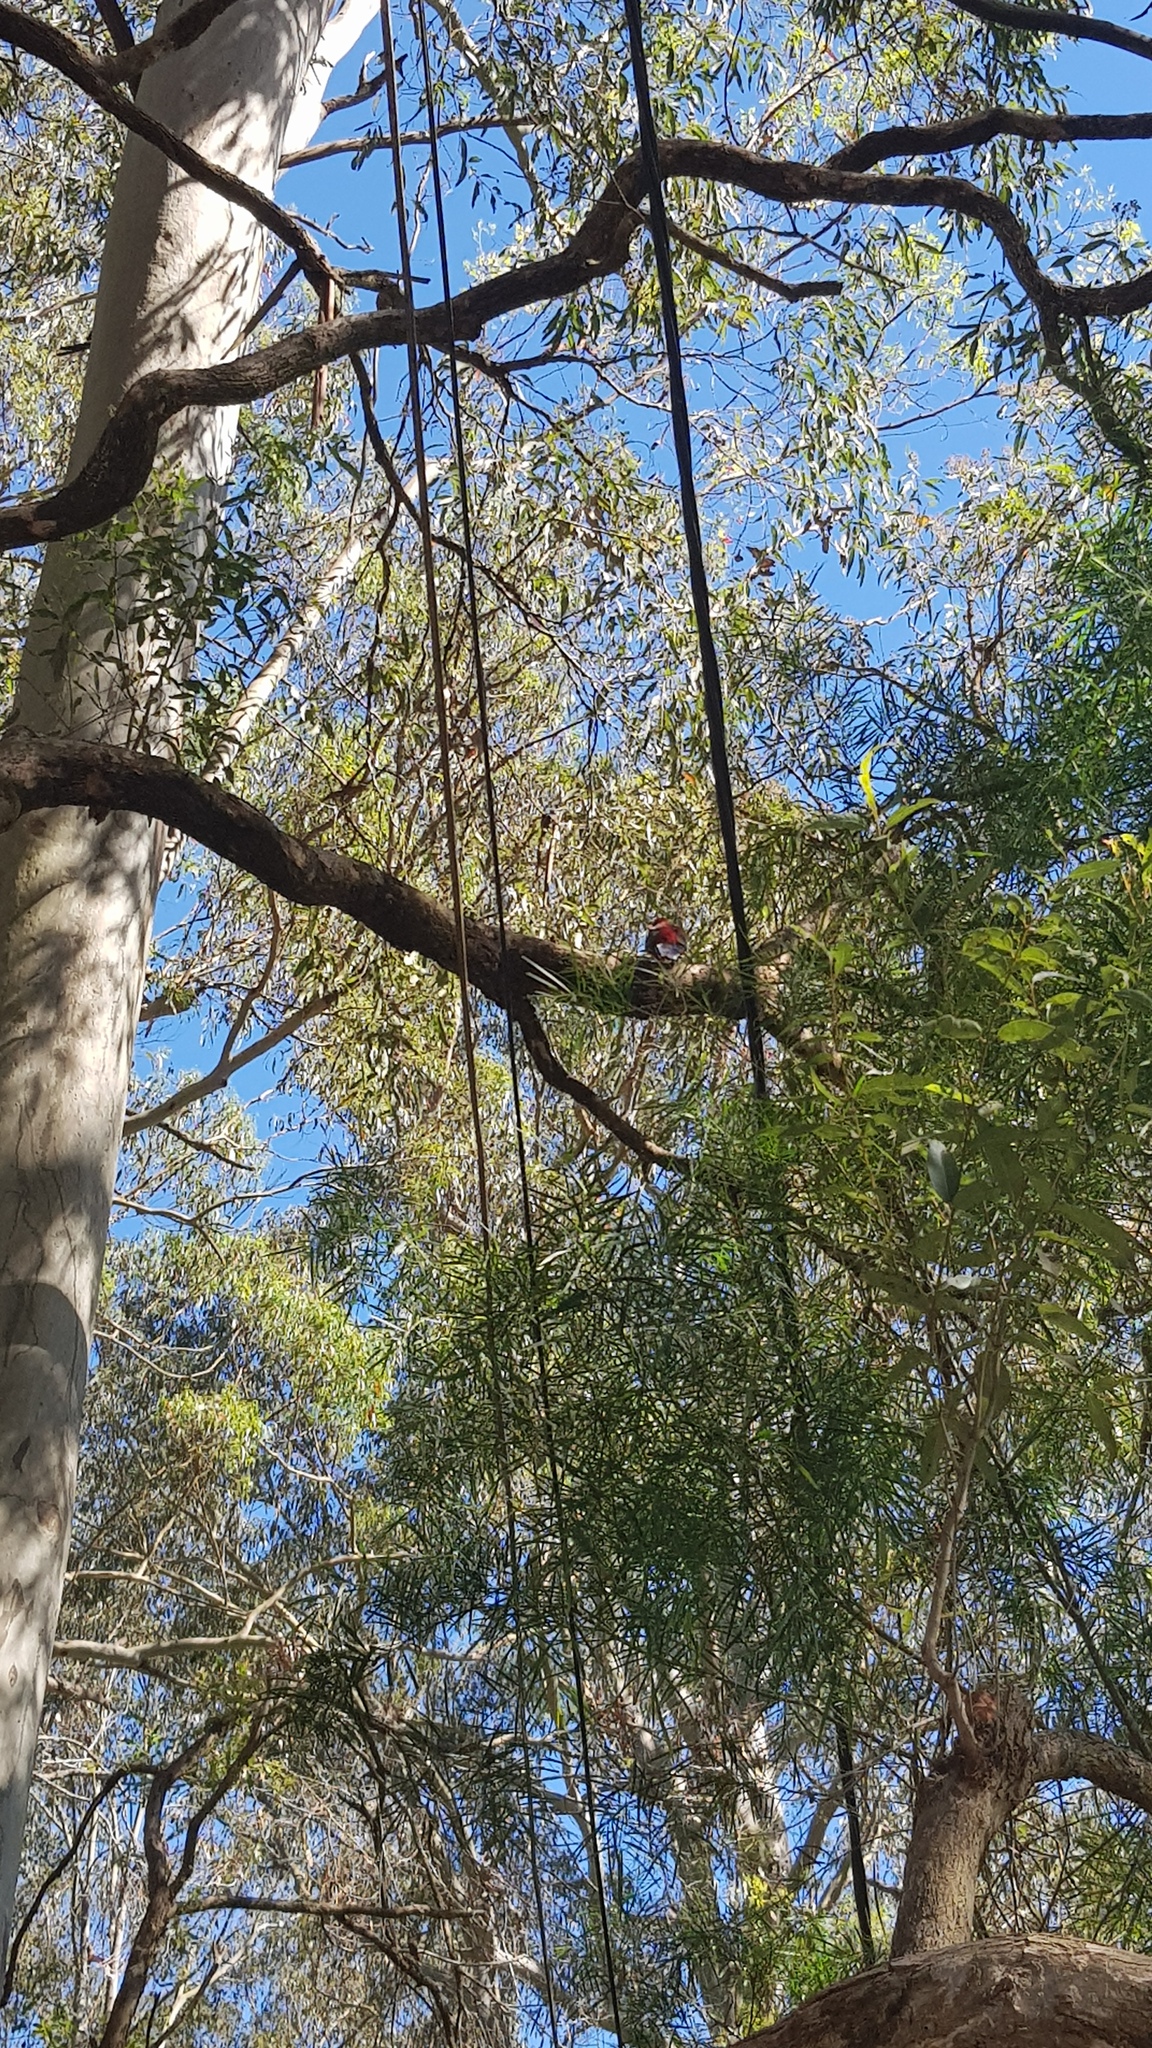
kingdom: Animalia
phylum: Chordata
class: Aves
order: Psittaciformes
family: Psittacidae
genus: Platycercus
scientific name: Platycercus elegans
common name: Crimson rosella
